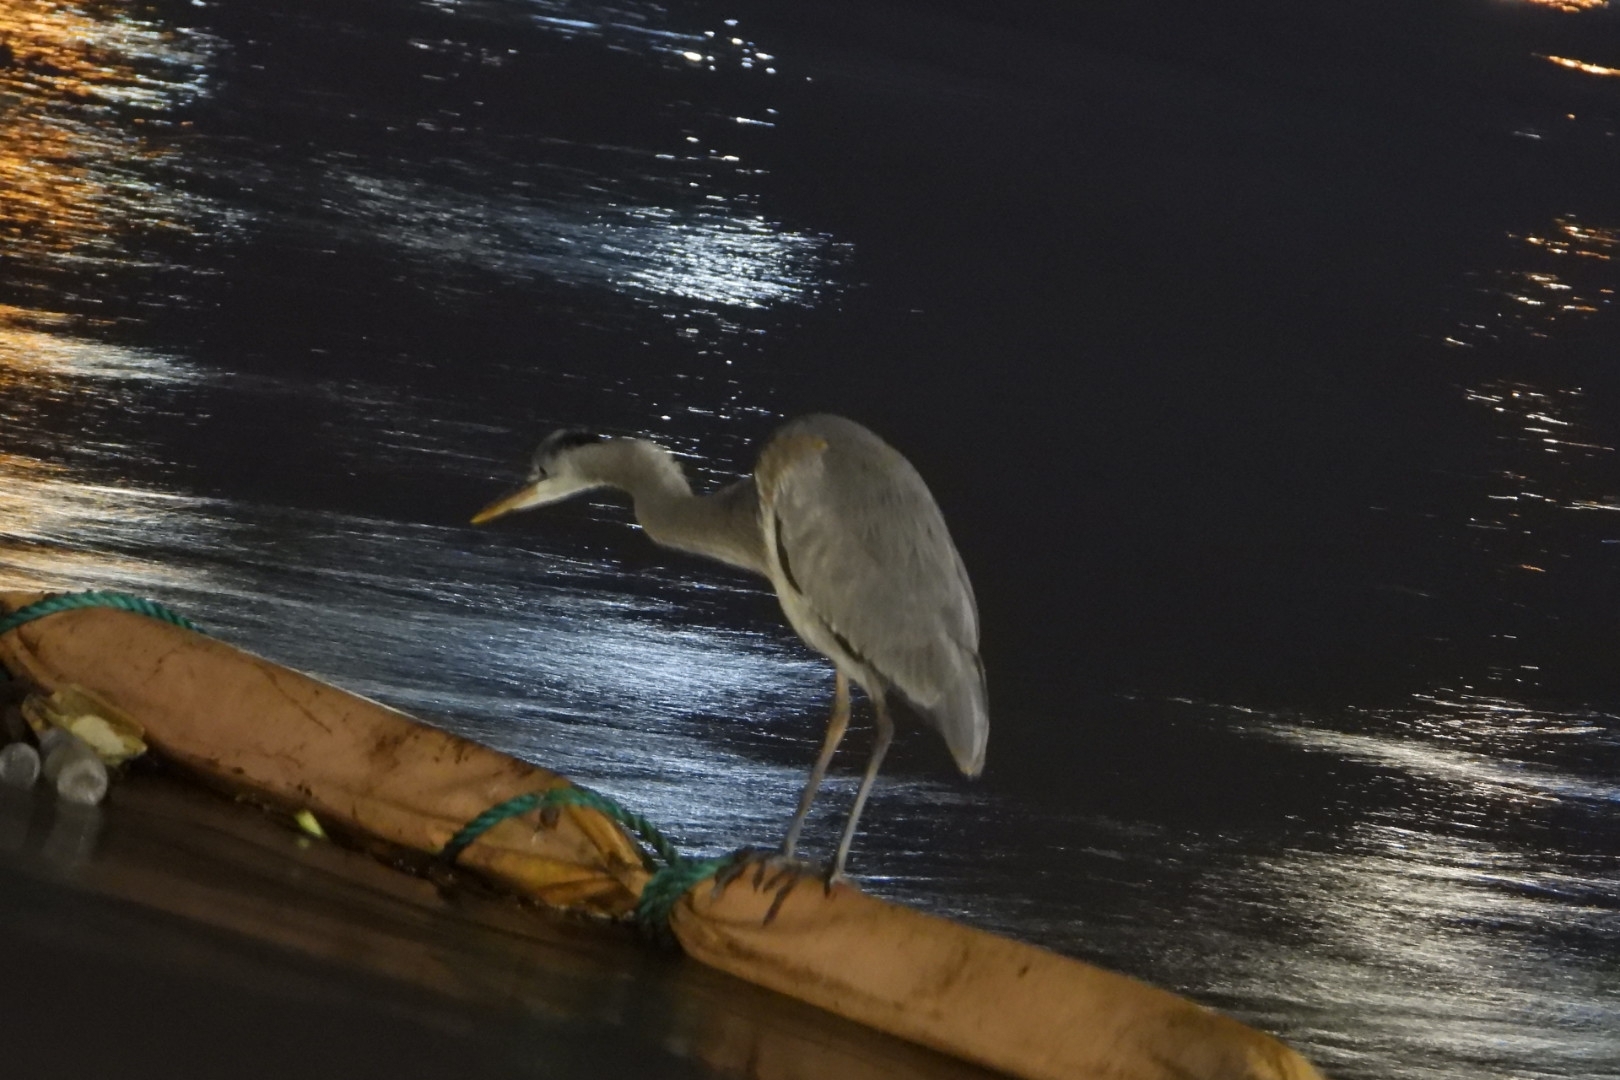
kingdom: Animalia
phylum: Chordata
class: Aves
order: Pelecaniformes
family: Ardeidae
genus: Ardea
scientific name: Ardea herodias
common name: Great blue heron
